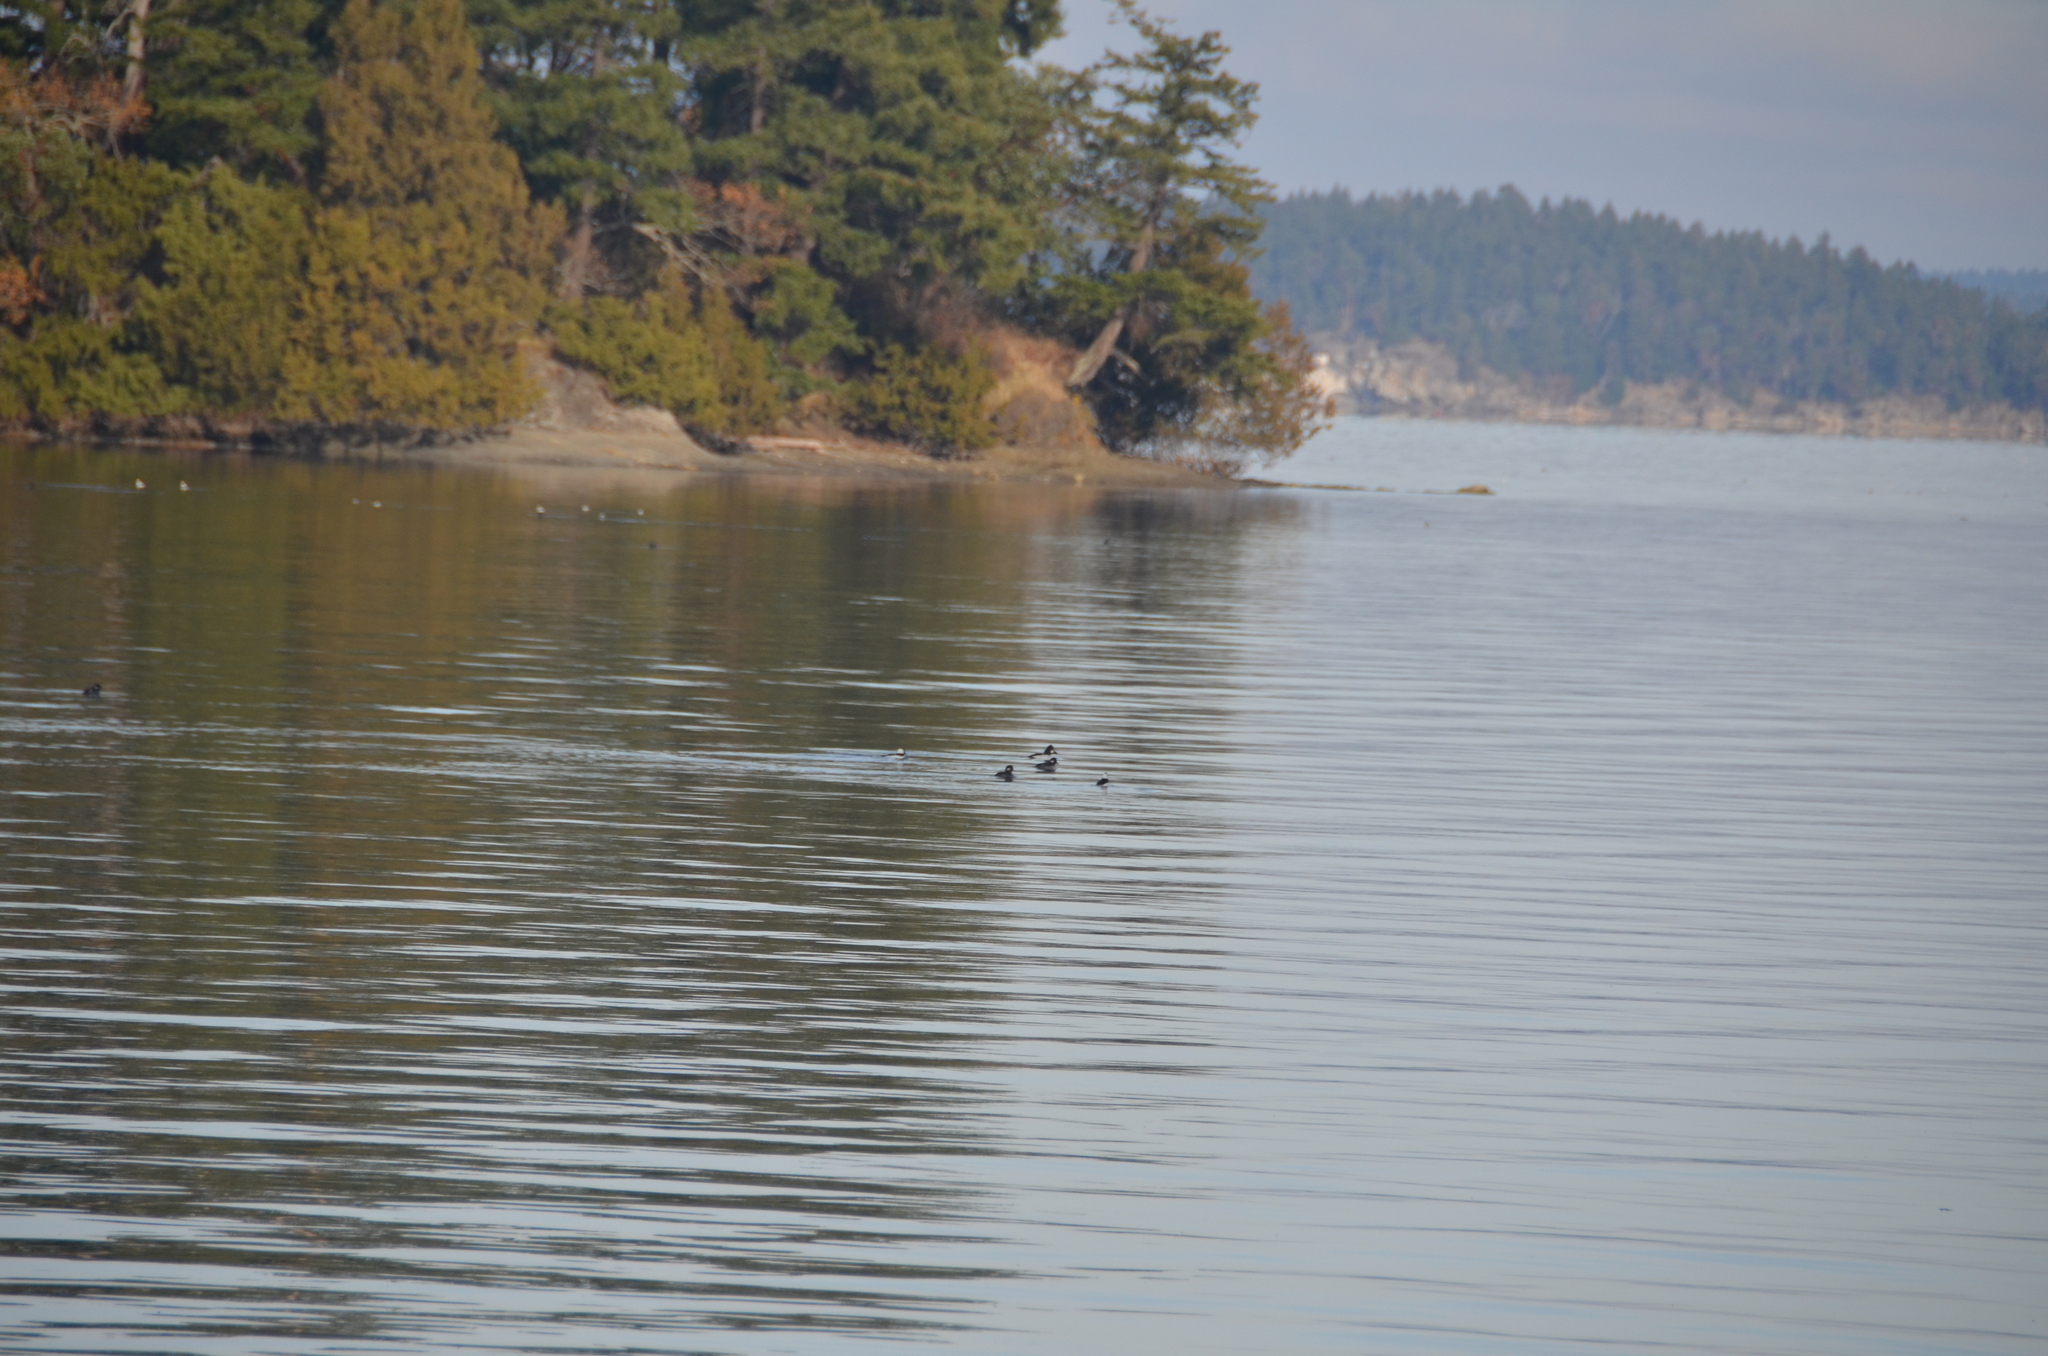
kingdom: Animalia
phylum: Chordata
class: Aves
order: Anseriformes
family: Anatidae
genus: Bucephala
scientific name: Bucephala clangula
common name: Common goldeneye
